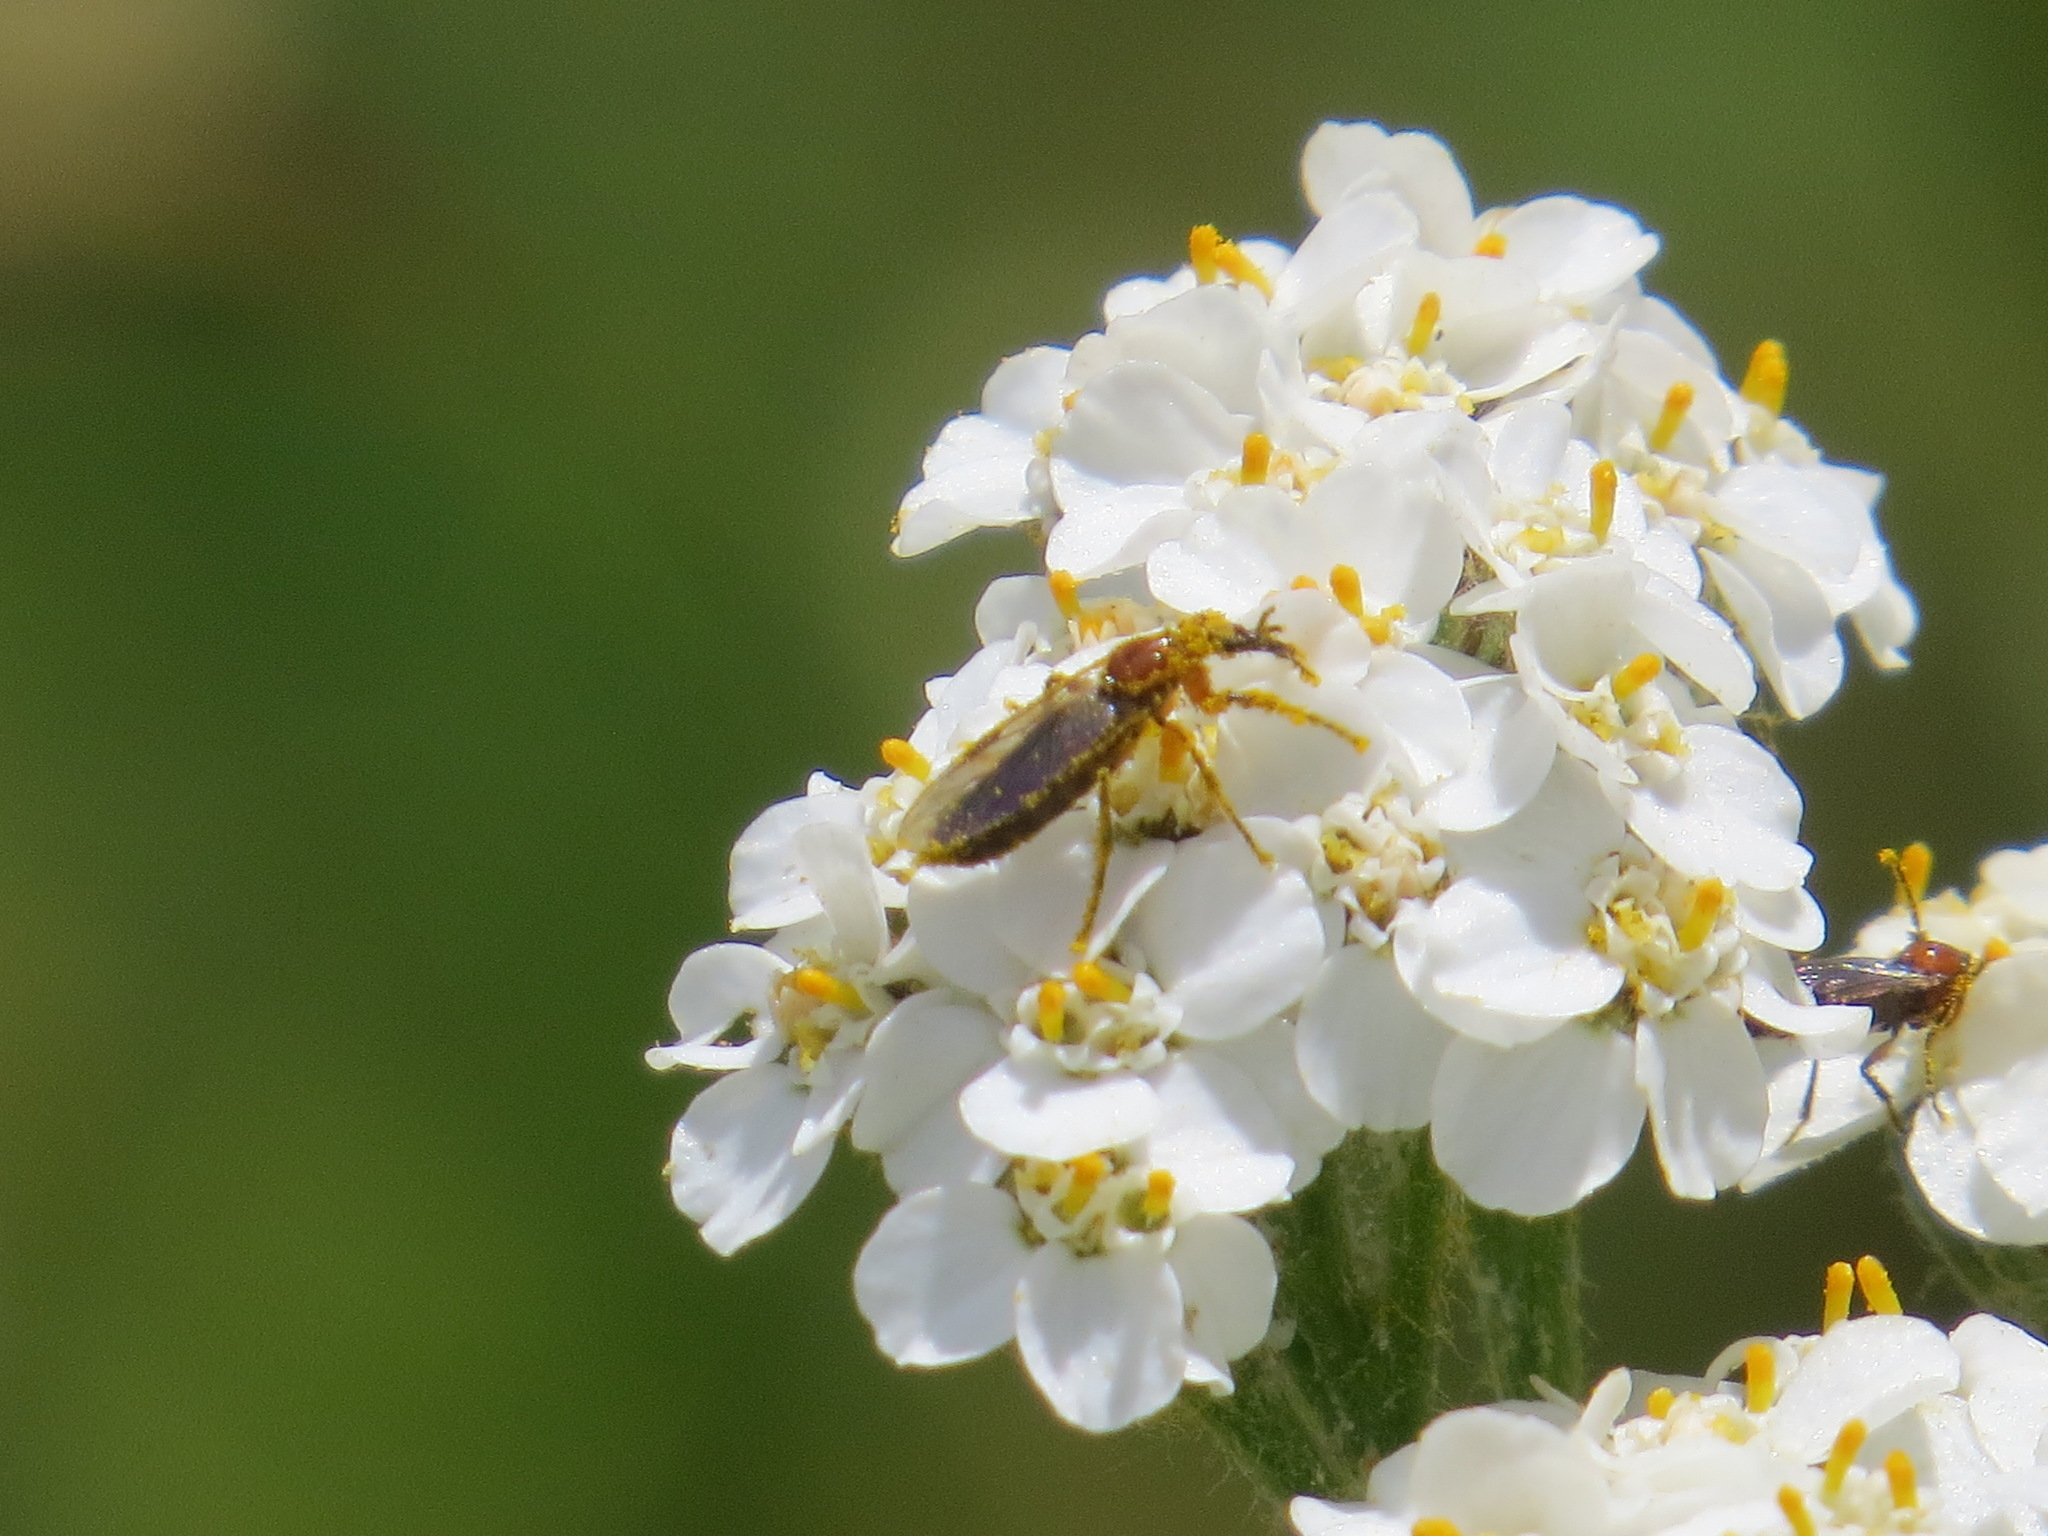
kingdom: Animalia
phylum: Arthropoda
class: Insecta
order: Diptera
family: Bibionidae
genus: Dilophus
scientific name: Dilophus
